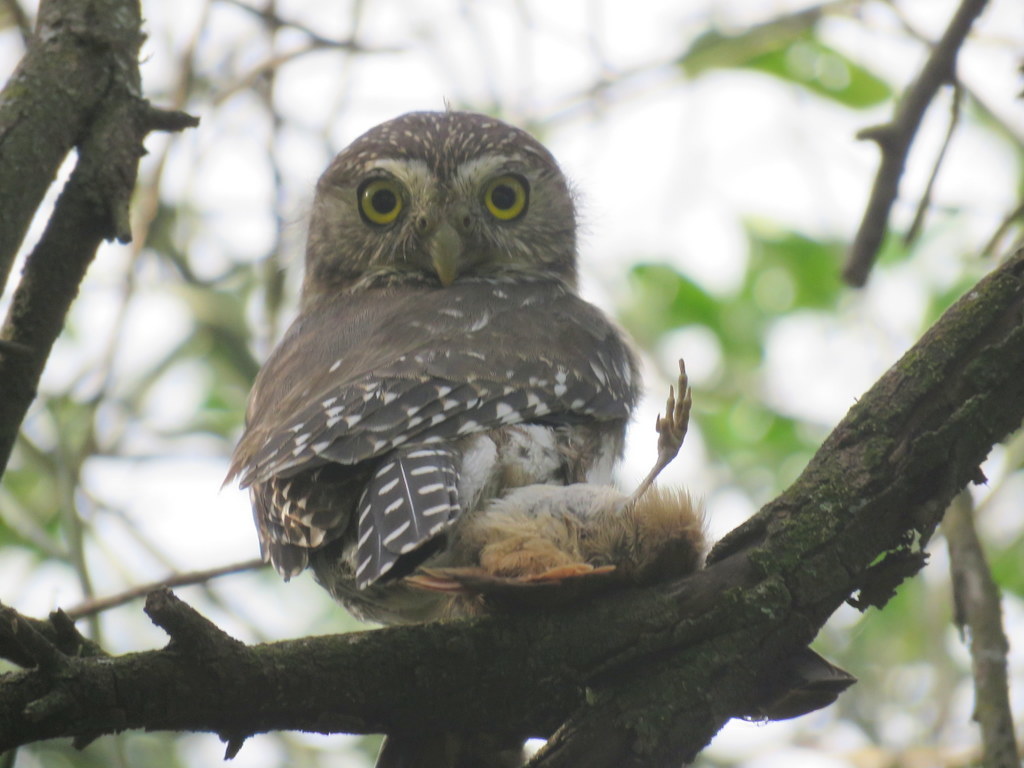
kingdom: Animalia
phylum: Chordata
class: Aves
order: Strigiformes
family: Strigidae
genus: Glaucidium
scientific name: Glaucidium brasilianum
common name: Ferruginous pygmy-owl
